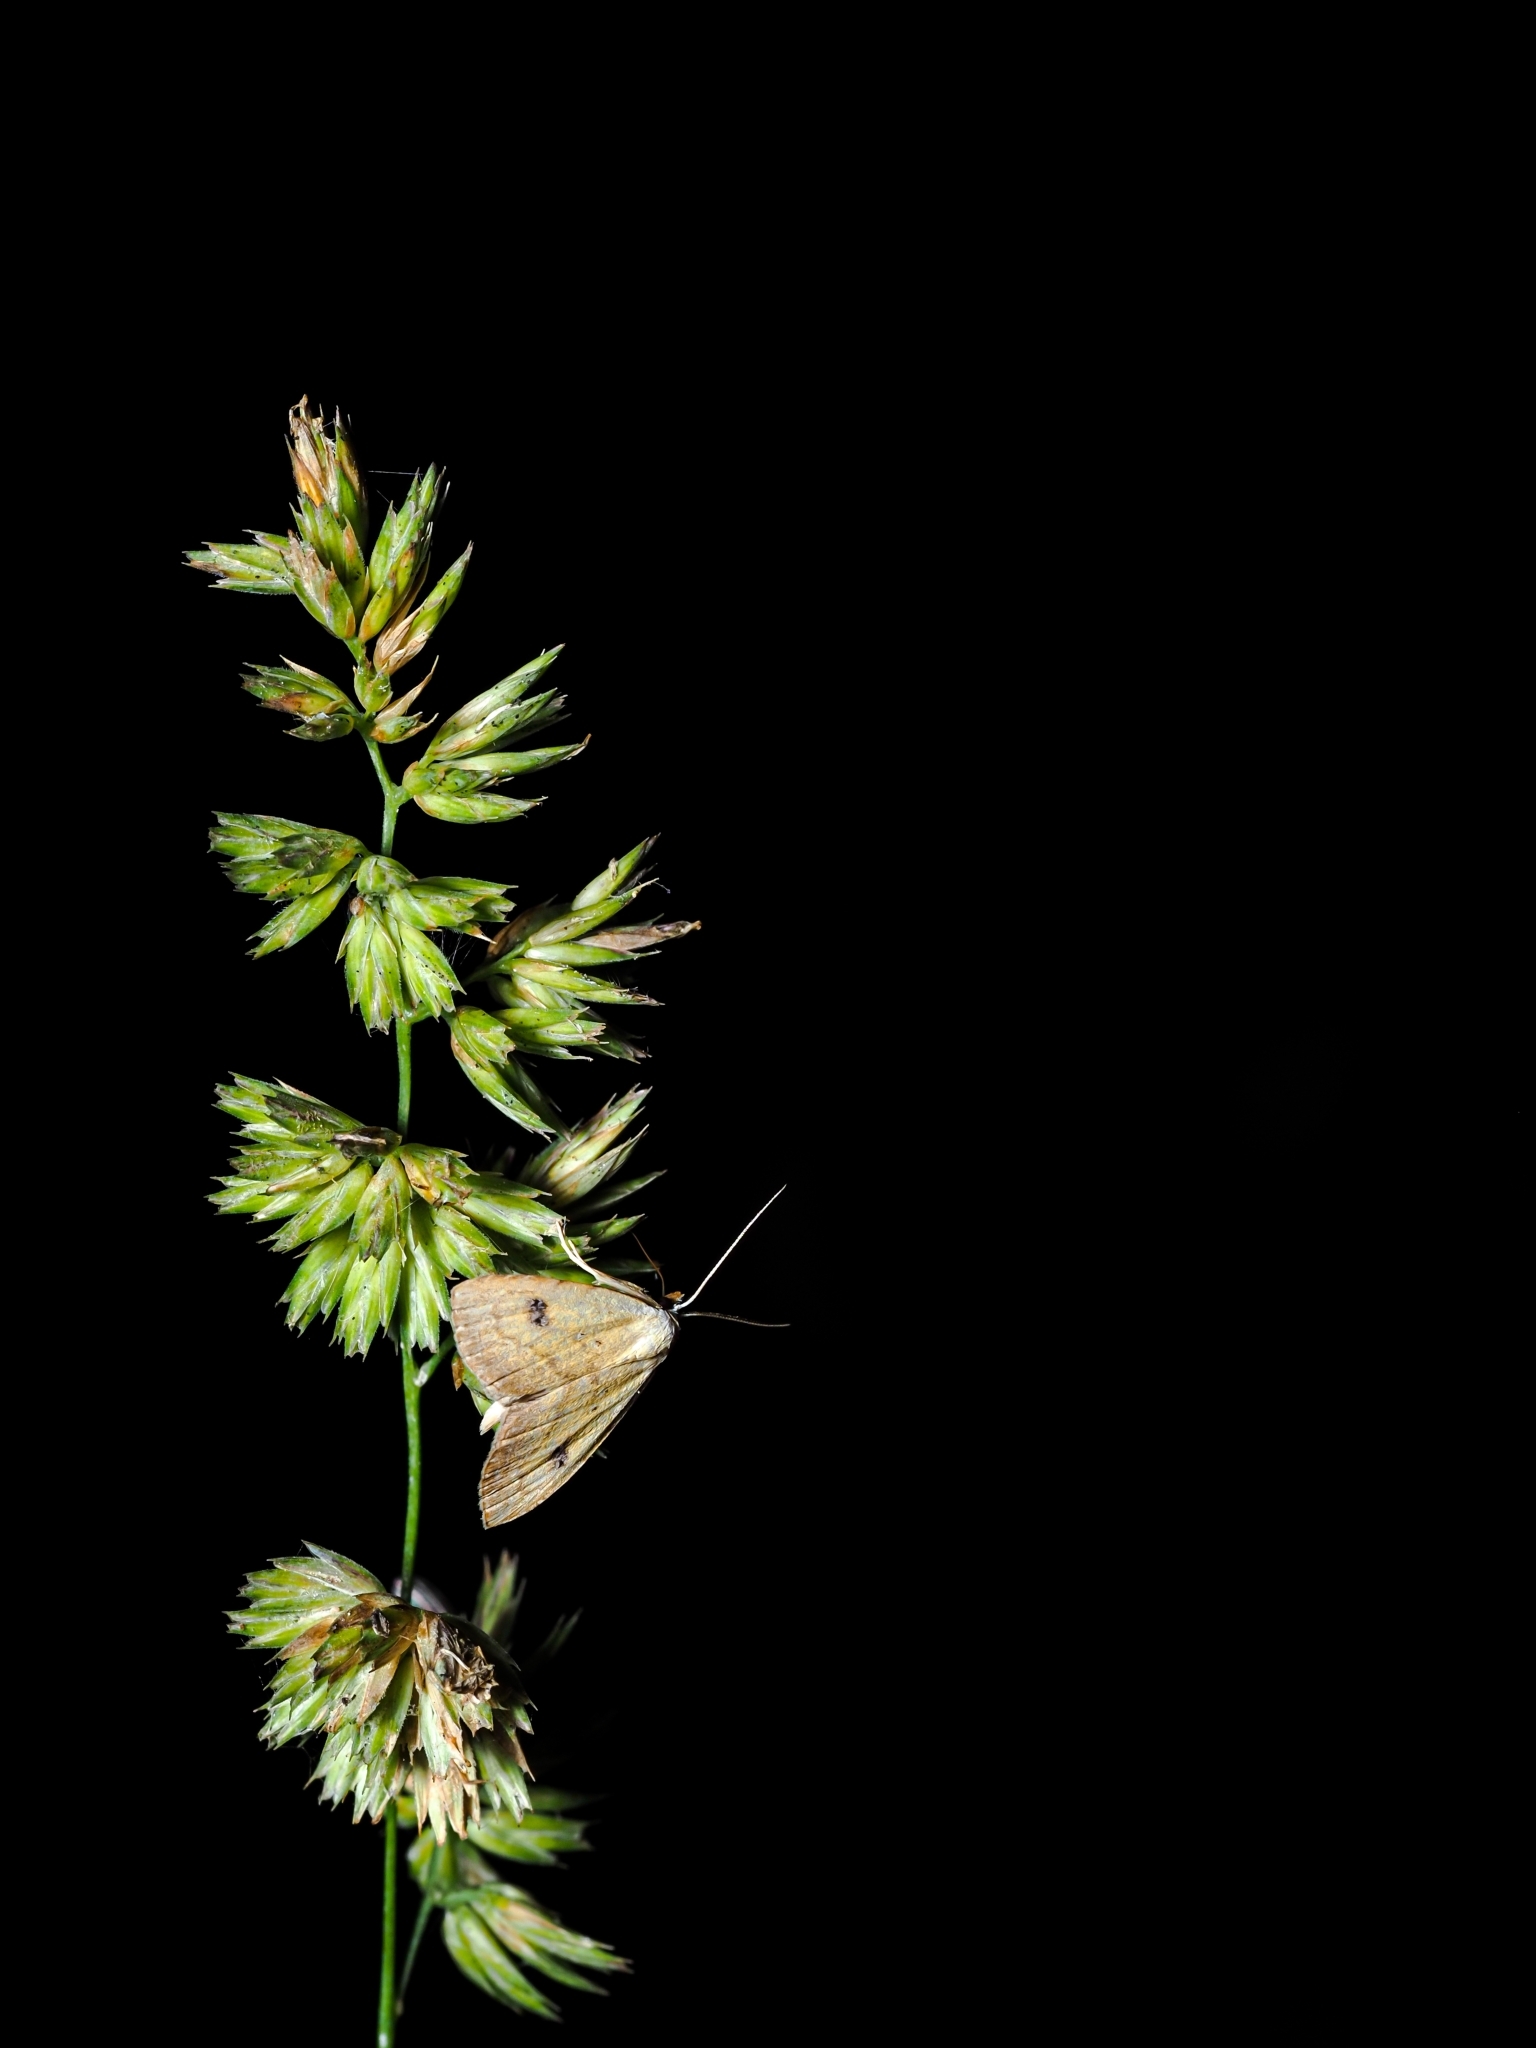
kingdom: Animalia
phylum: Arthropoda
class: Insecta
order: Lepidoptera
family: Erebidae
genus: Rivula
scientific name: Rivula sericealis
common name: Straw dot
